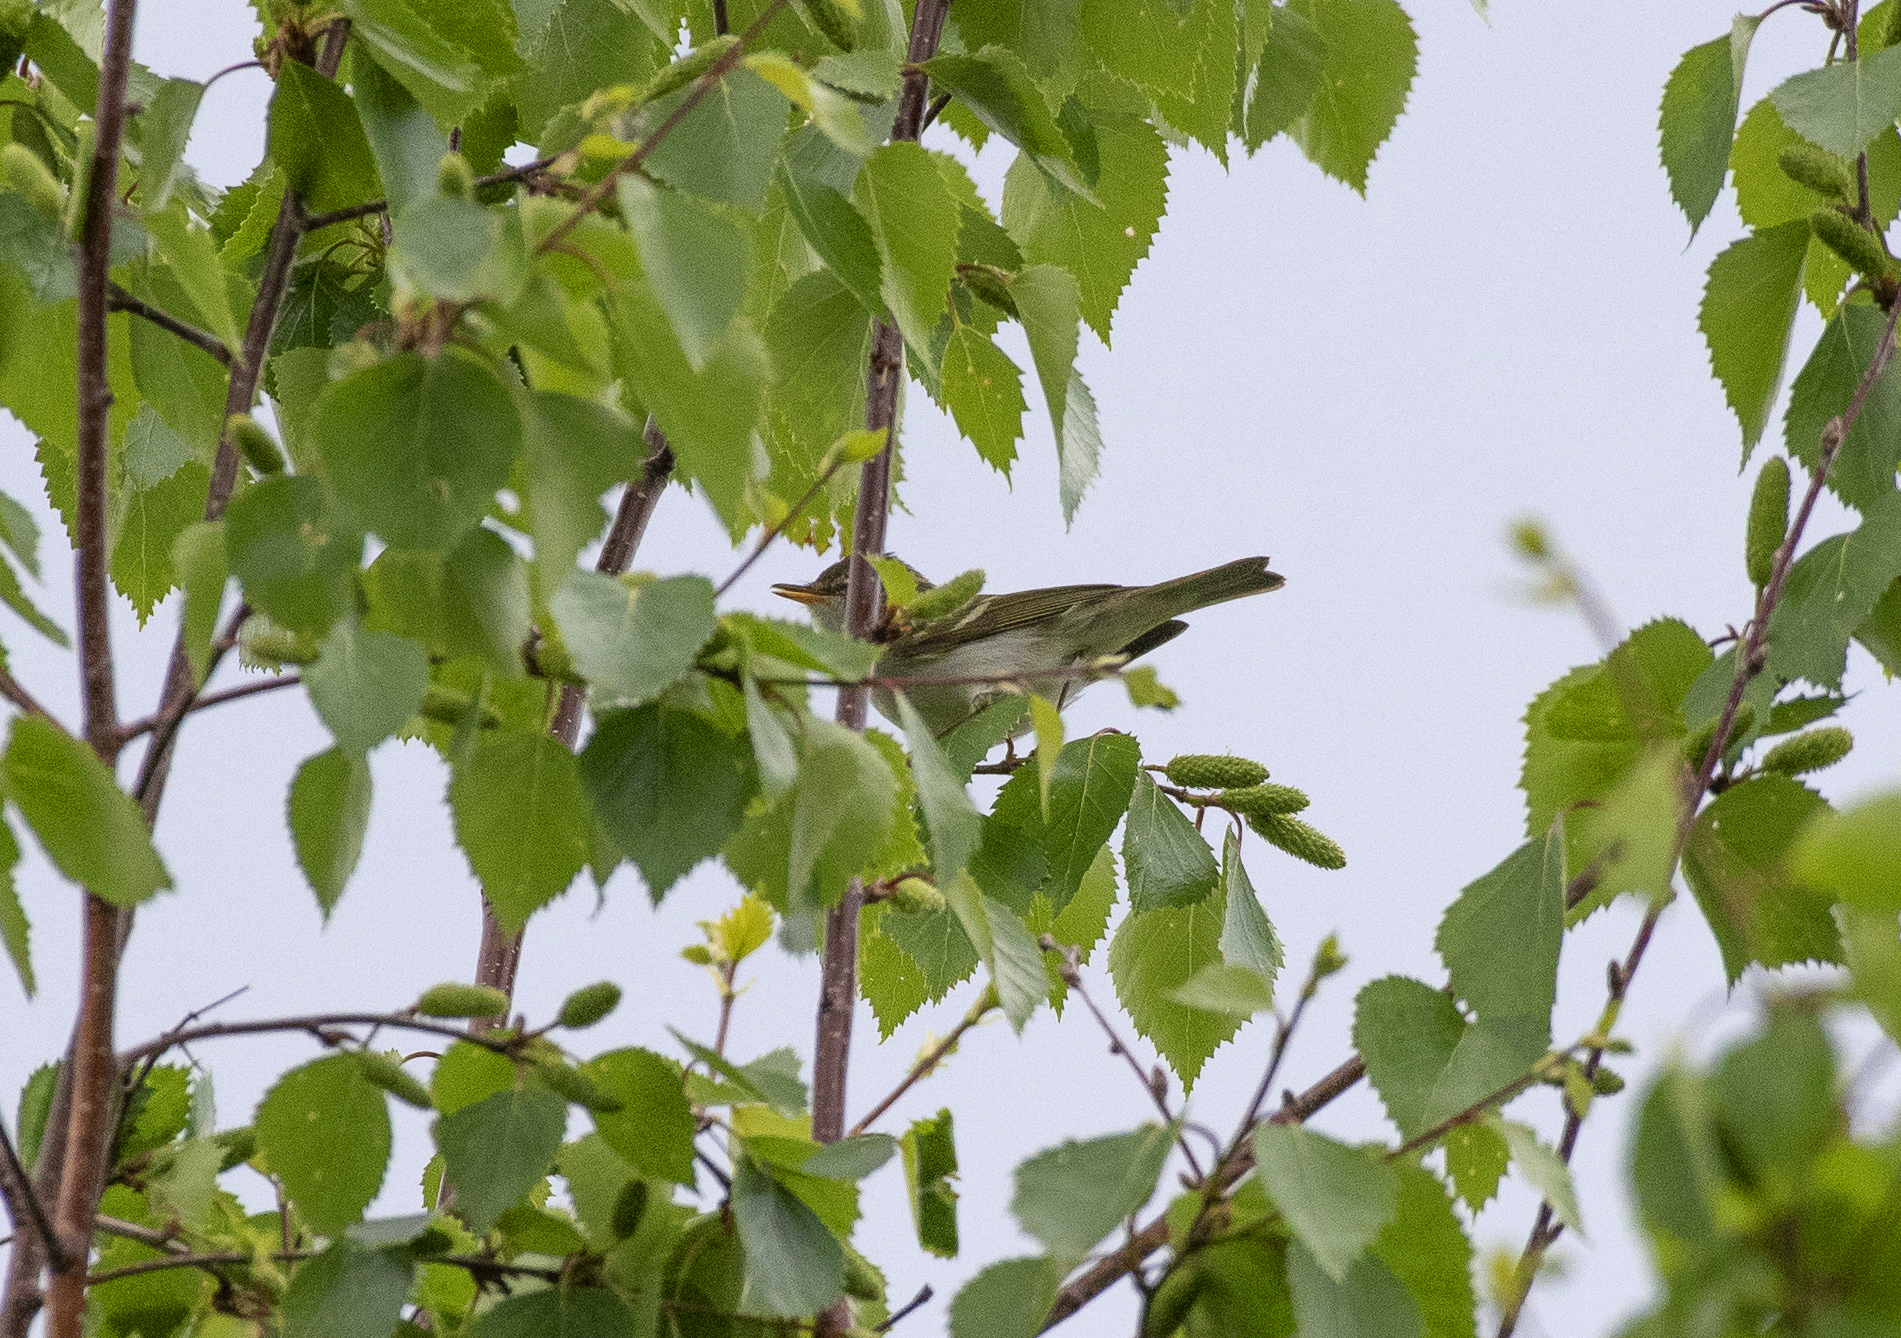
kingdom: Animalia
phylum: Chordata
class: Aves
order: Passeriformes
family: Phylloscopidae
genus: Phylloscopus
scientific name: Phylloscopus plumbeitarsus
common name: Two-barred warbler
